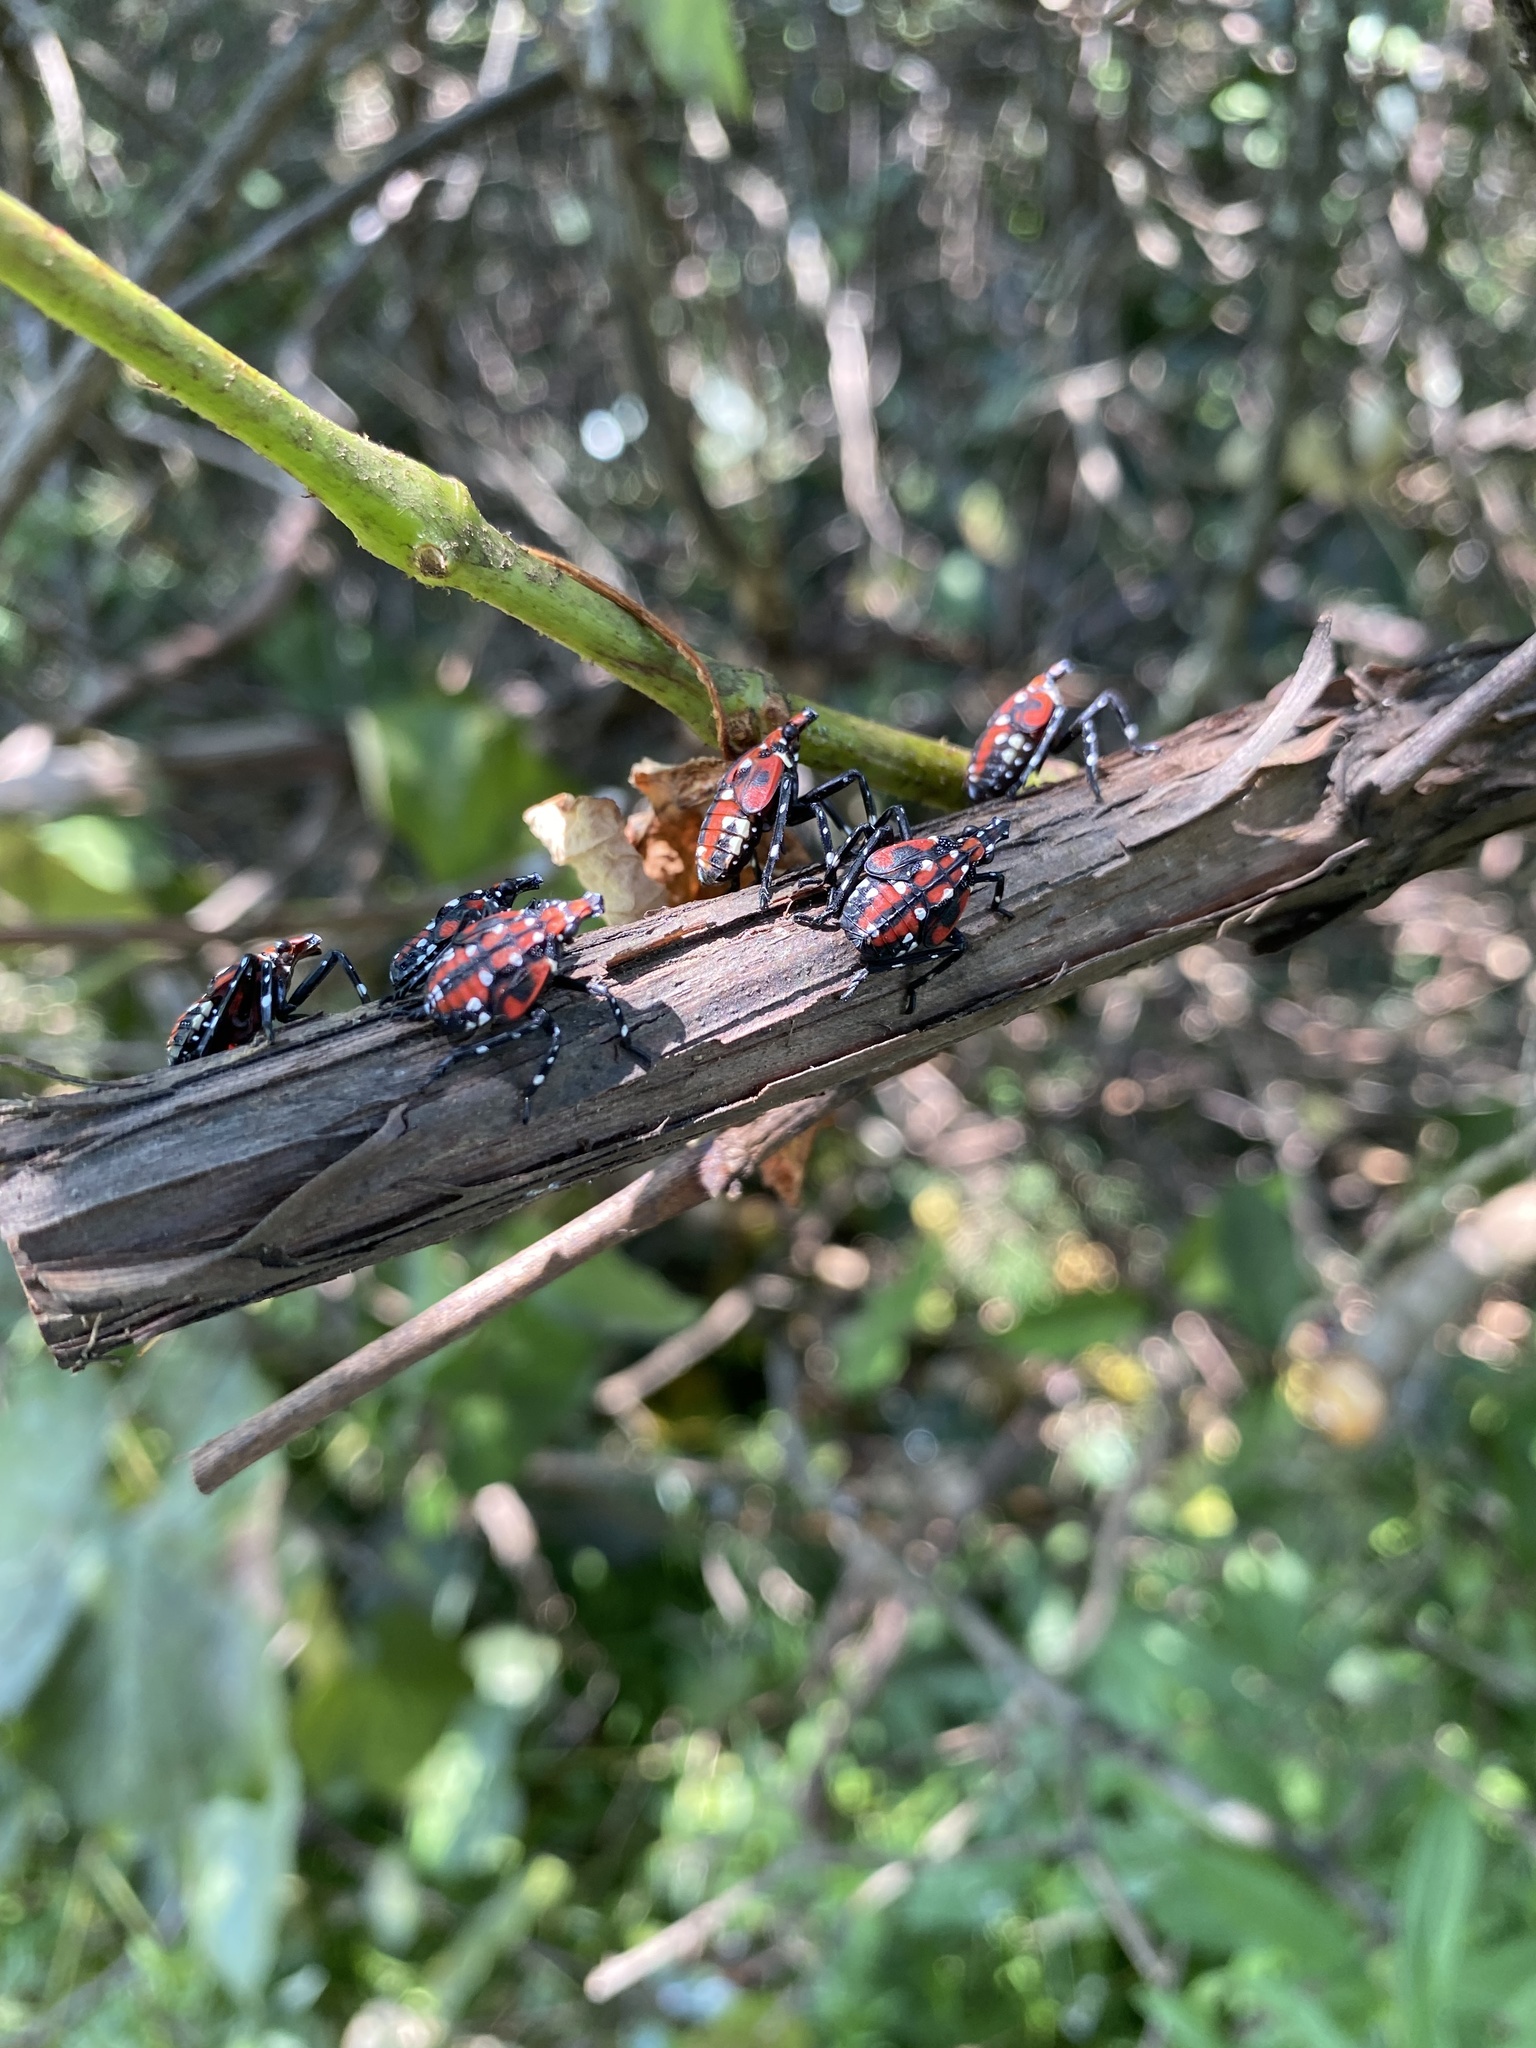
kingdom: Animalia
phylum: Arthropoda
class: Insecta
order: Hemiptera
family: Fulgoridae
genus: Lycorma
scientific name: Lycorma delicatula
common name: Spotted lanternfly
